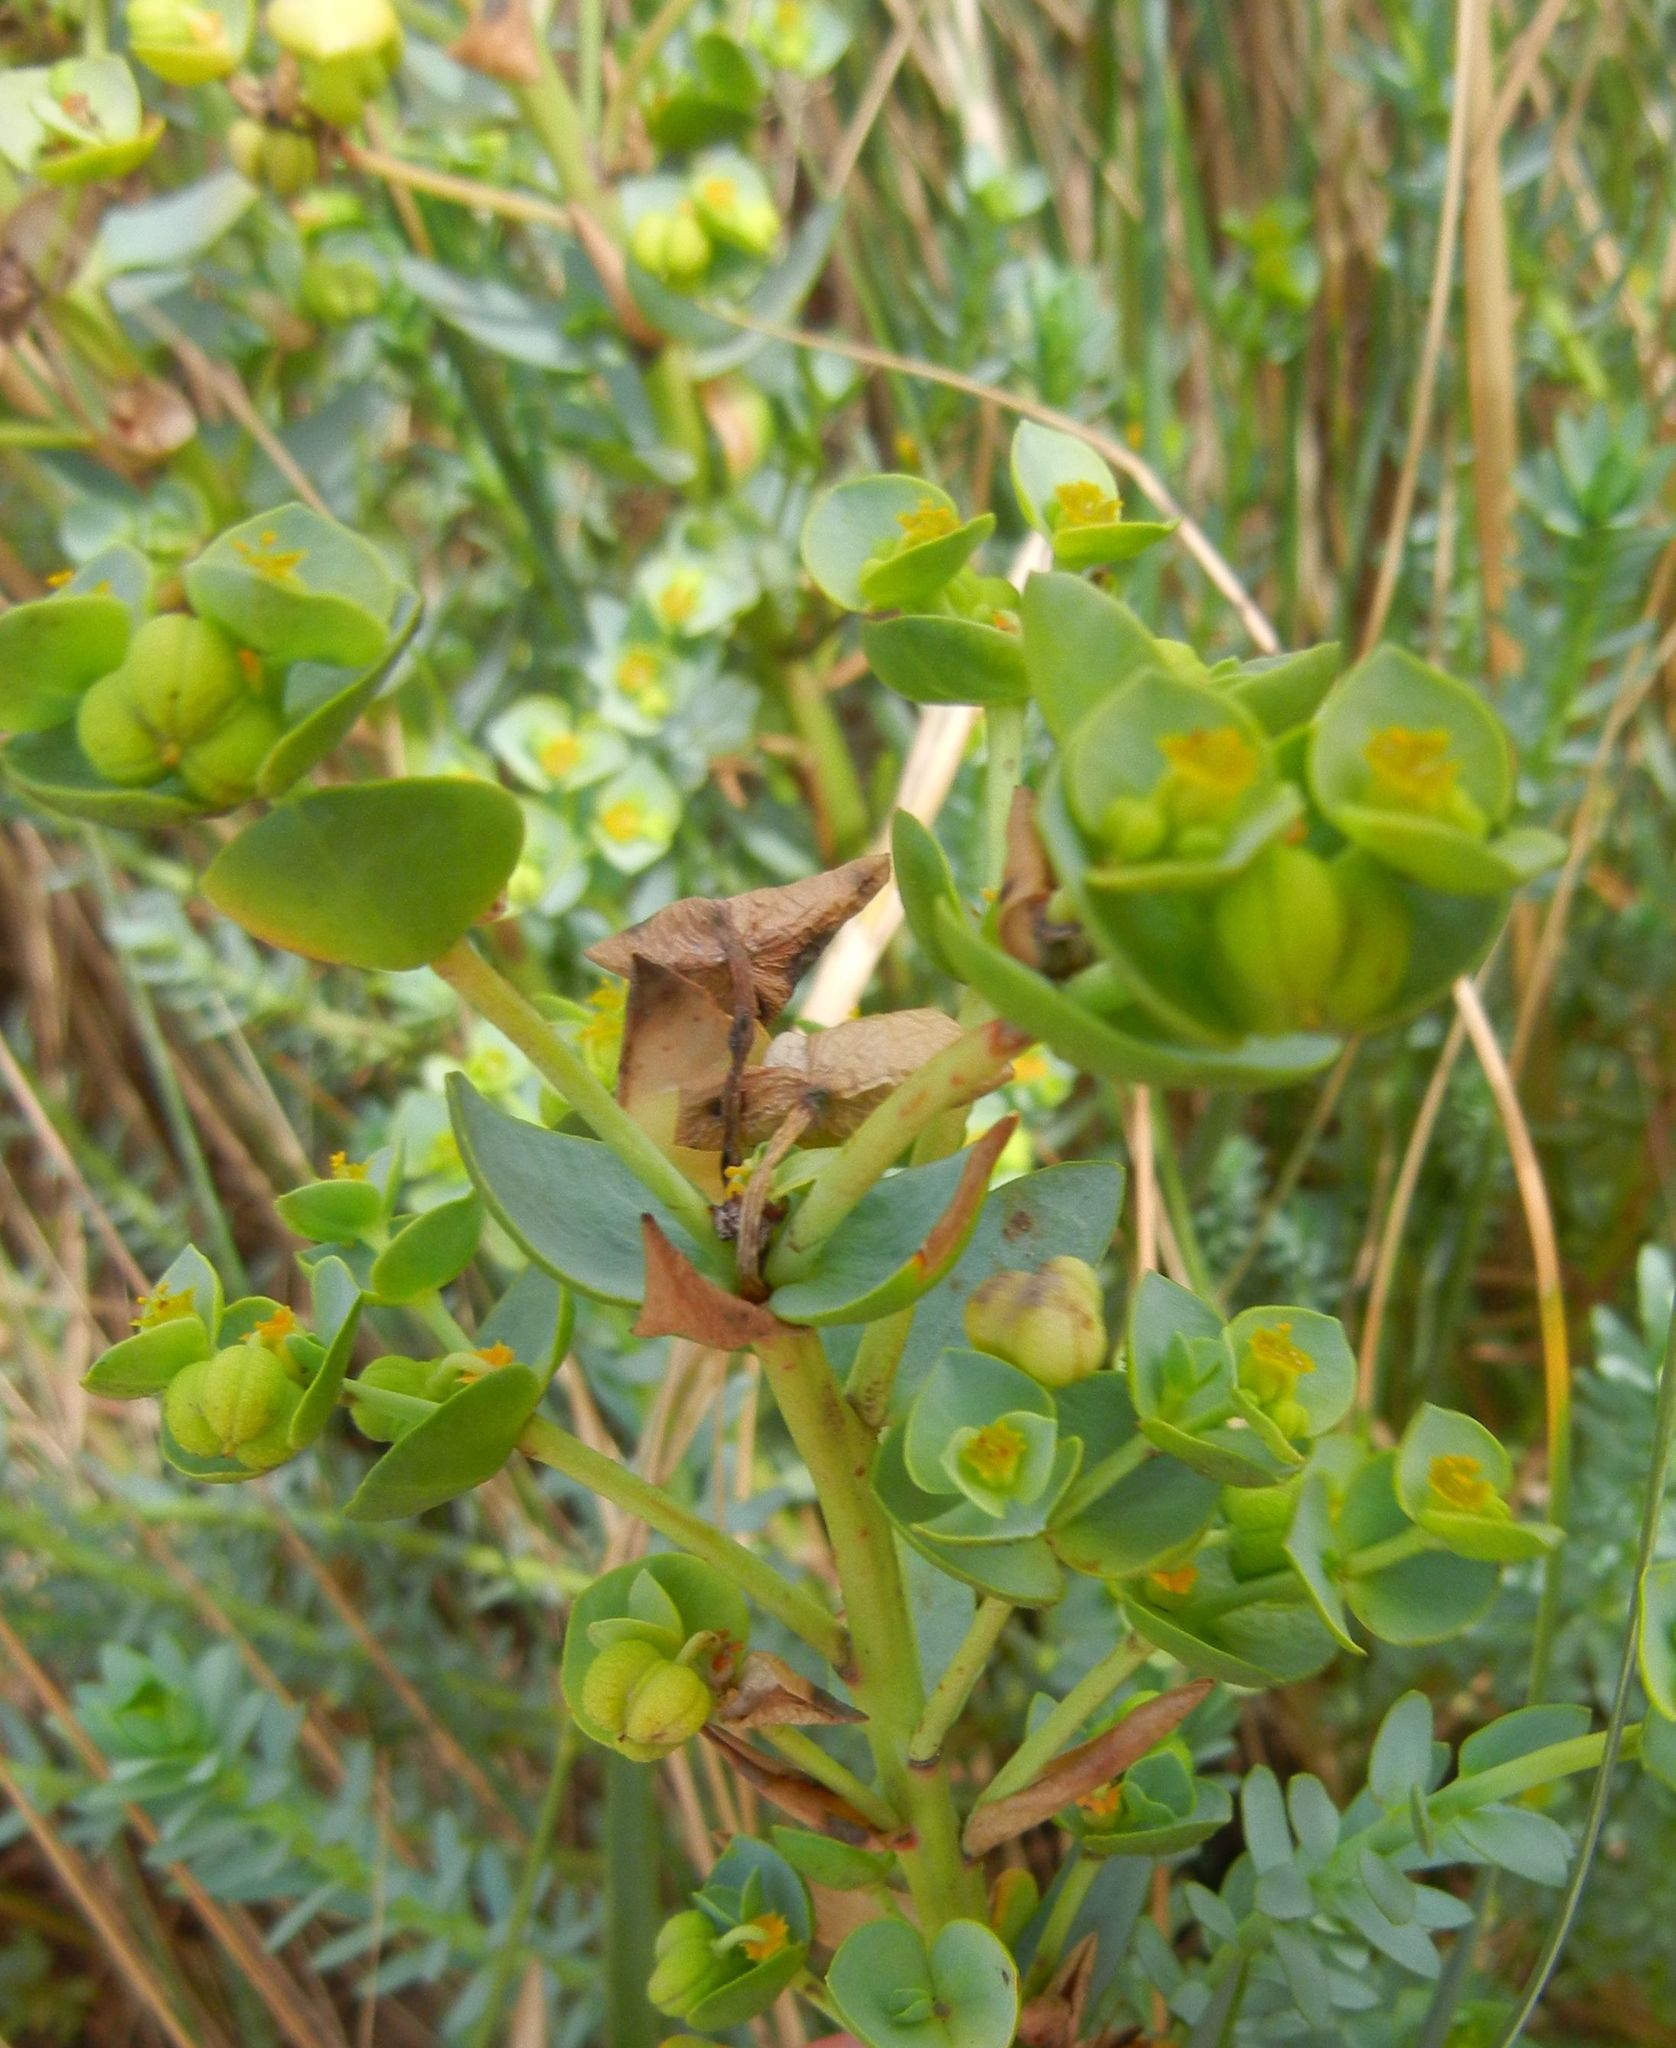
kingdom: Plantae
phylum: Tracheophyta
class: Magnoliopsida
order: Malpighiales
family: Euphorbiaceae
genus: Euphorbia
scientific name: Euphorbia paralias
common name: Sea spurge
